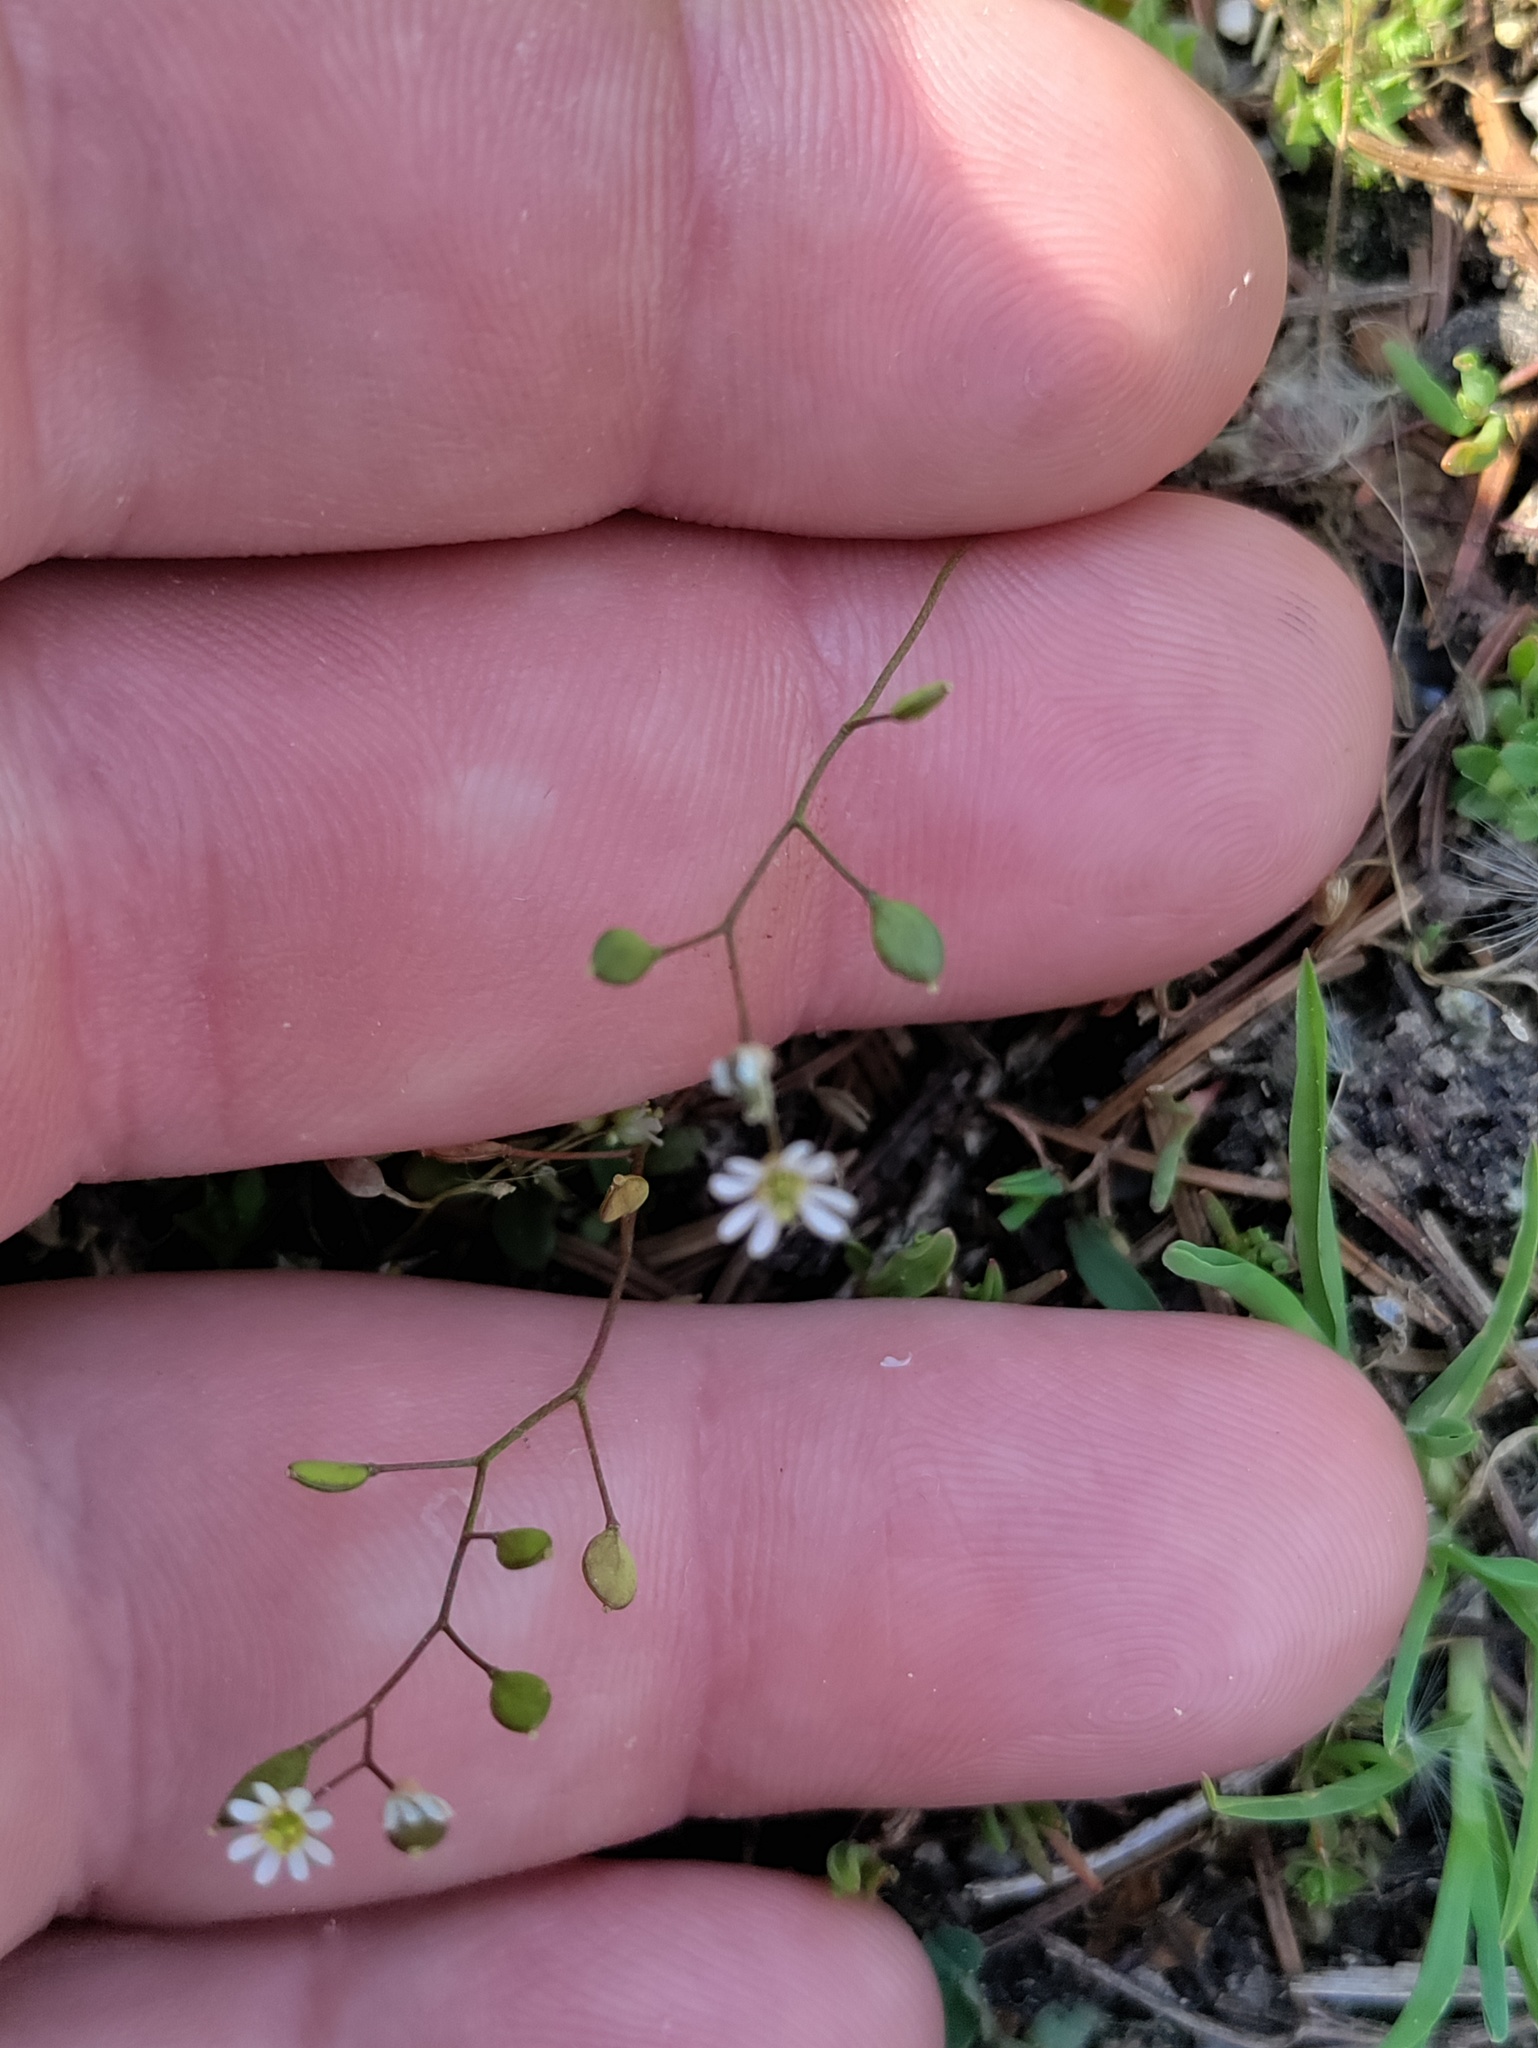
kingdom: Plantae
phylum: Tracheophyta
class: Magnoliopsida
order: Brassicales
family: Brassicaceae
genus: Draba
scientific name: Draba verna
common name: Spring draba
